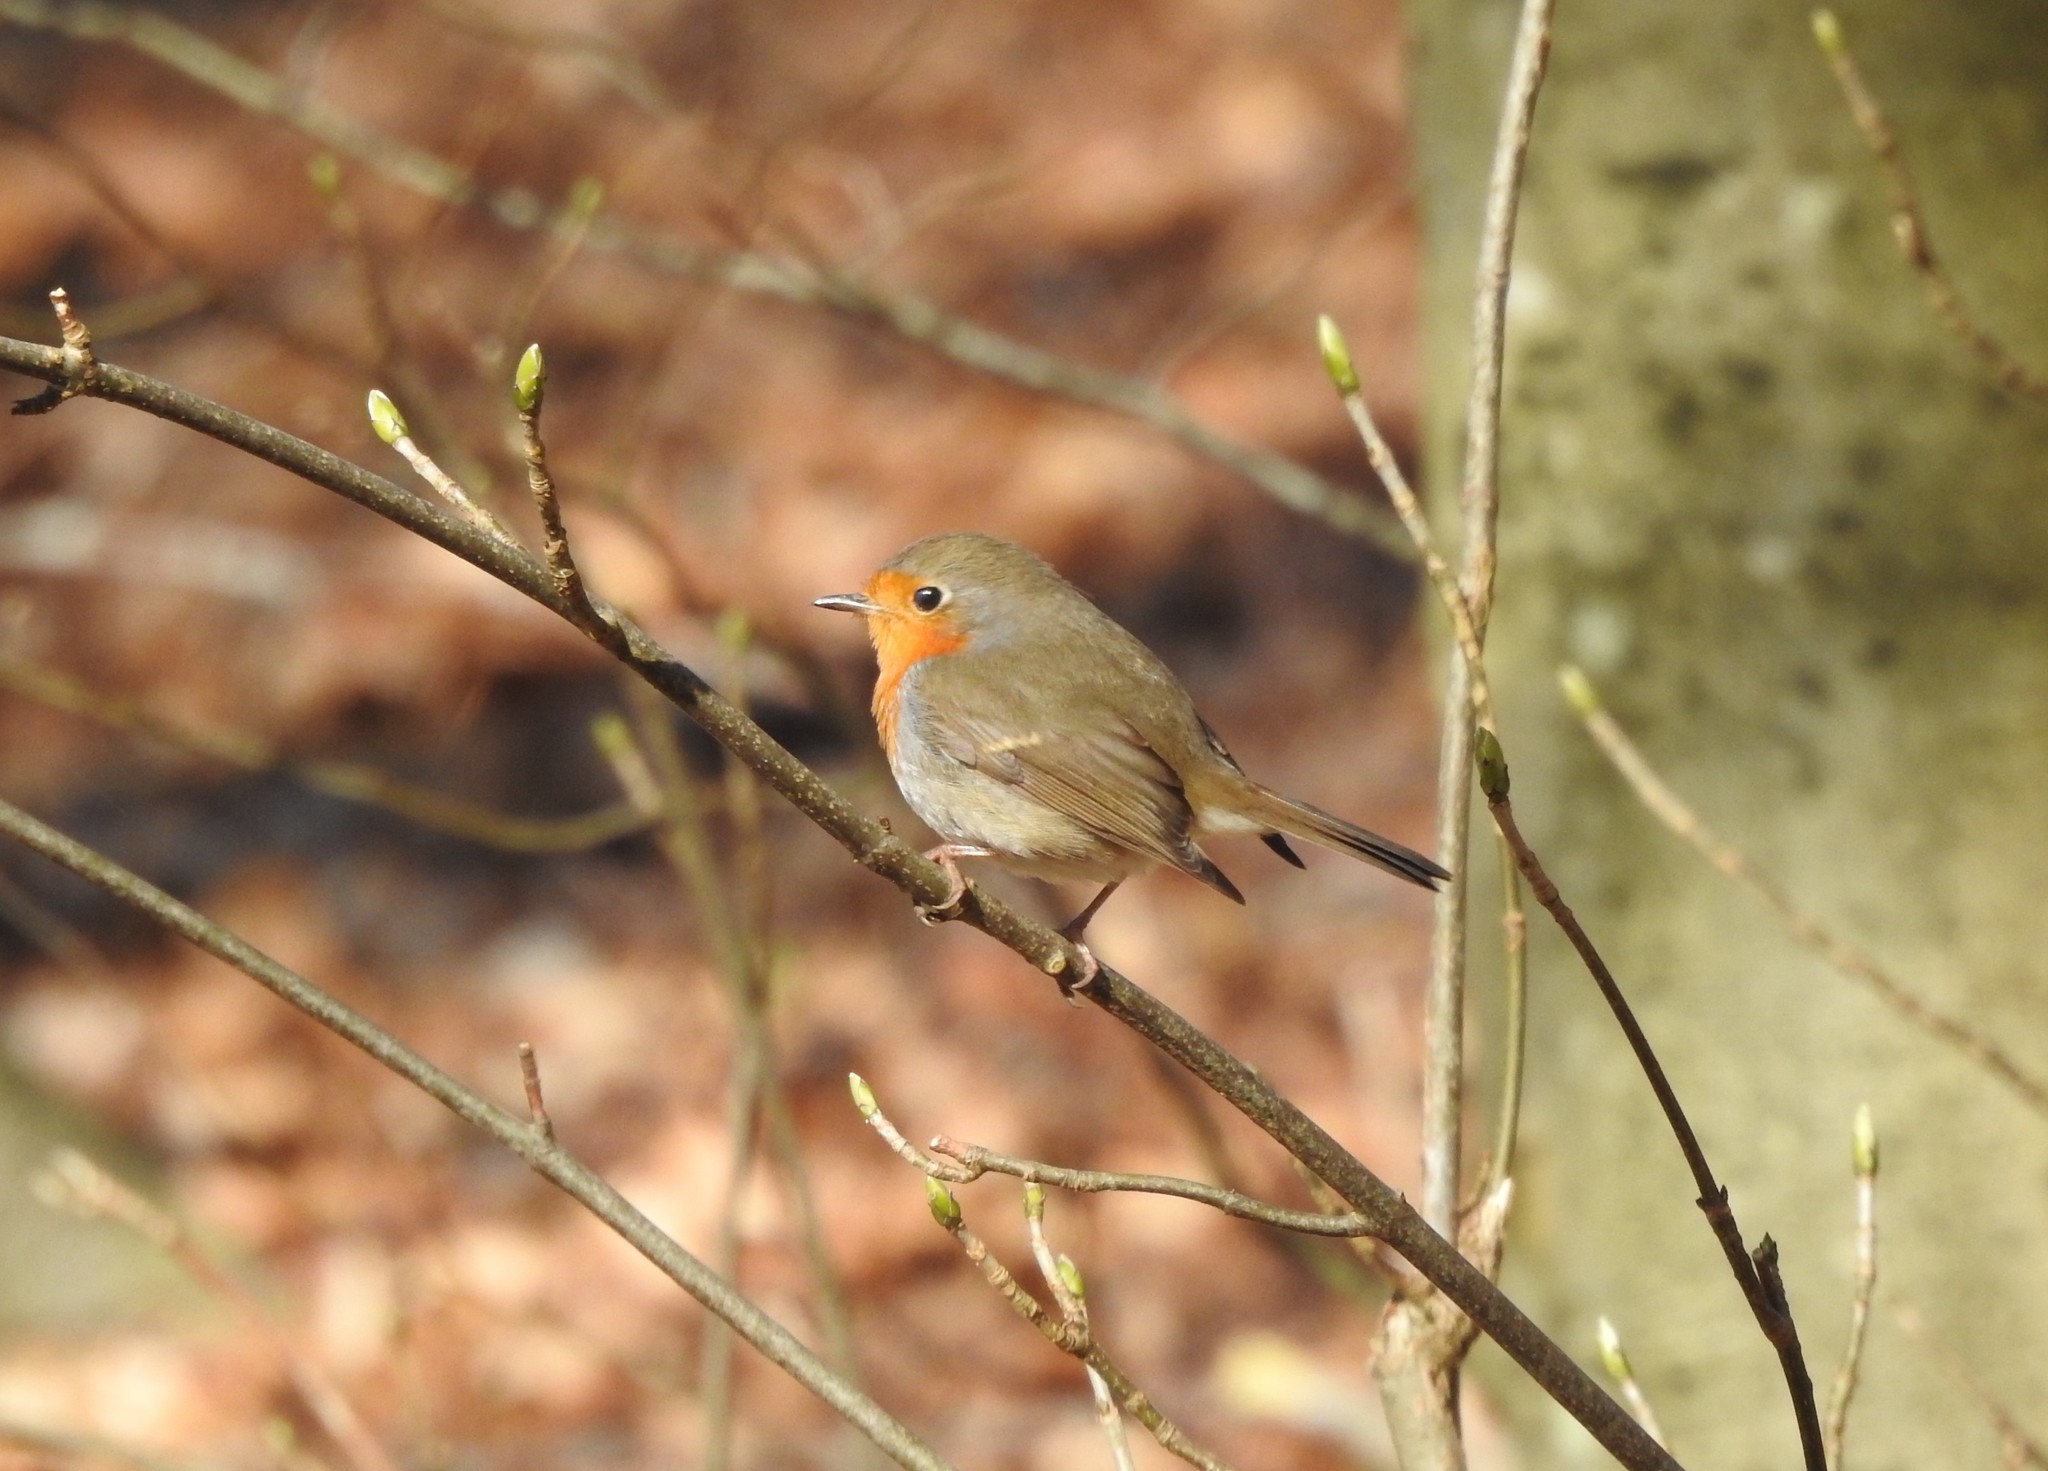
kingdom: Animalia
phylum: Chordata
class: Aves
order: Passeriformes
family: Muscicapidae
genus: Erithacus
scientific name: Erithacus rubecula
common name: European robin
